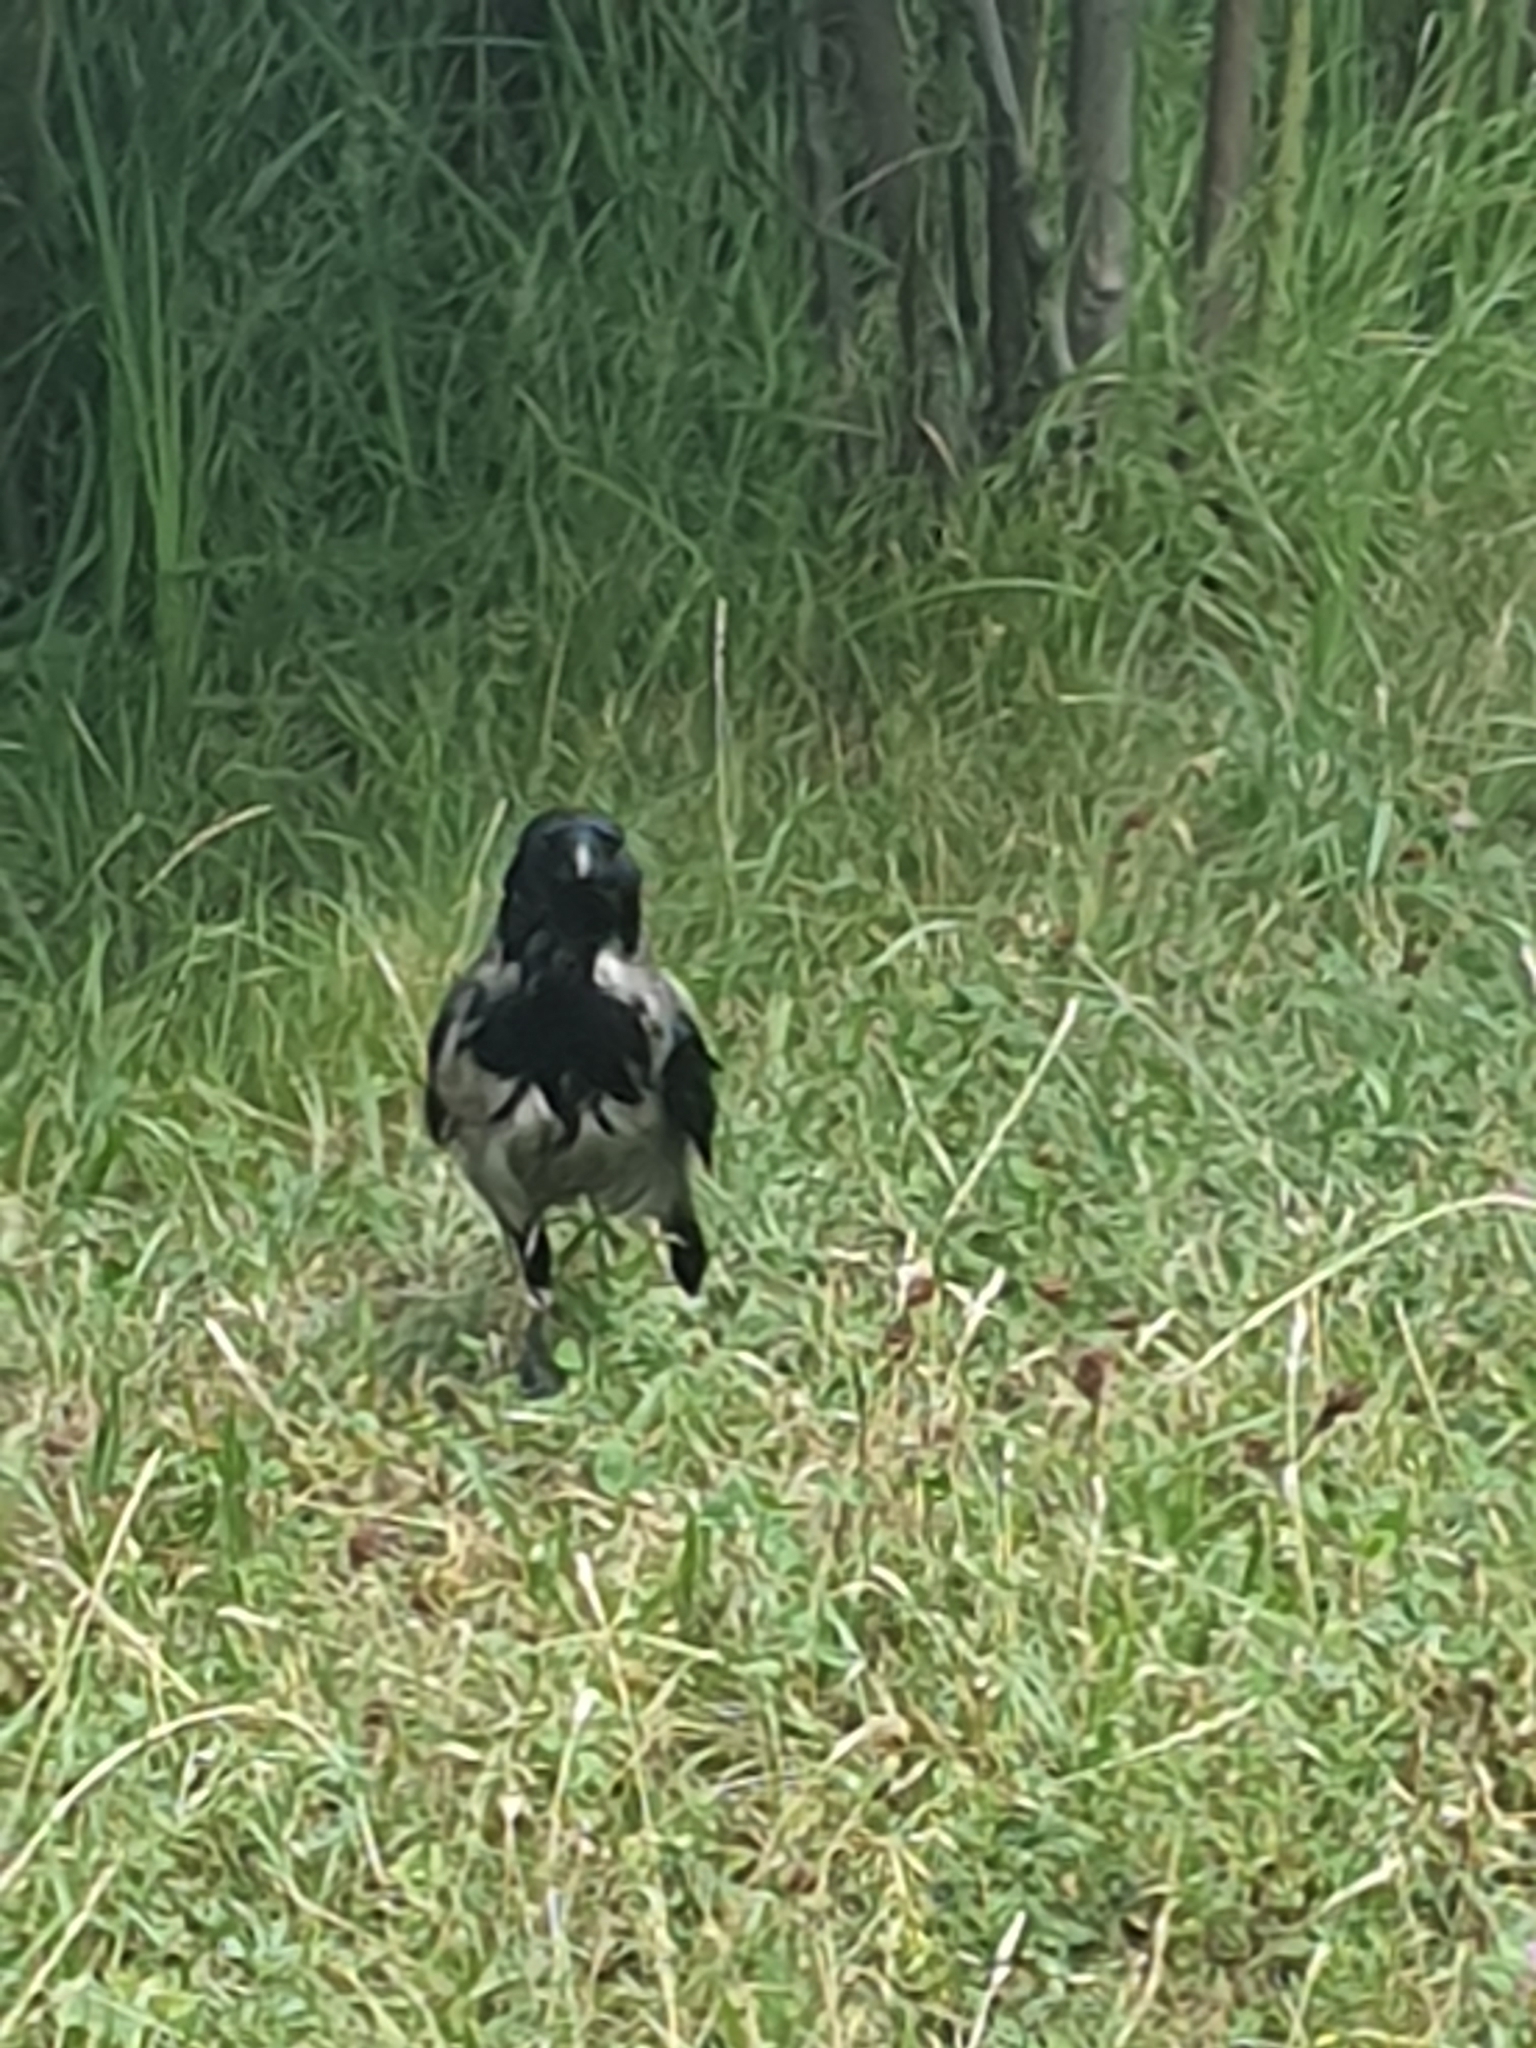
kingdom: Animalia
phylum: Chordata
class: Aves
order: Passeriformes
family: Corvidae
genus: Corvus
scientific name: Corvus cornix
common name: Hooded crow
